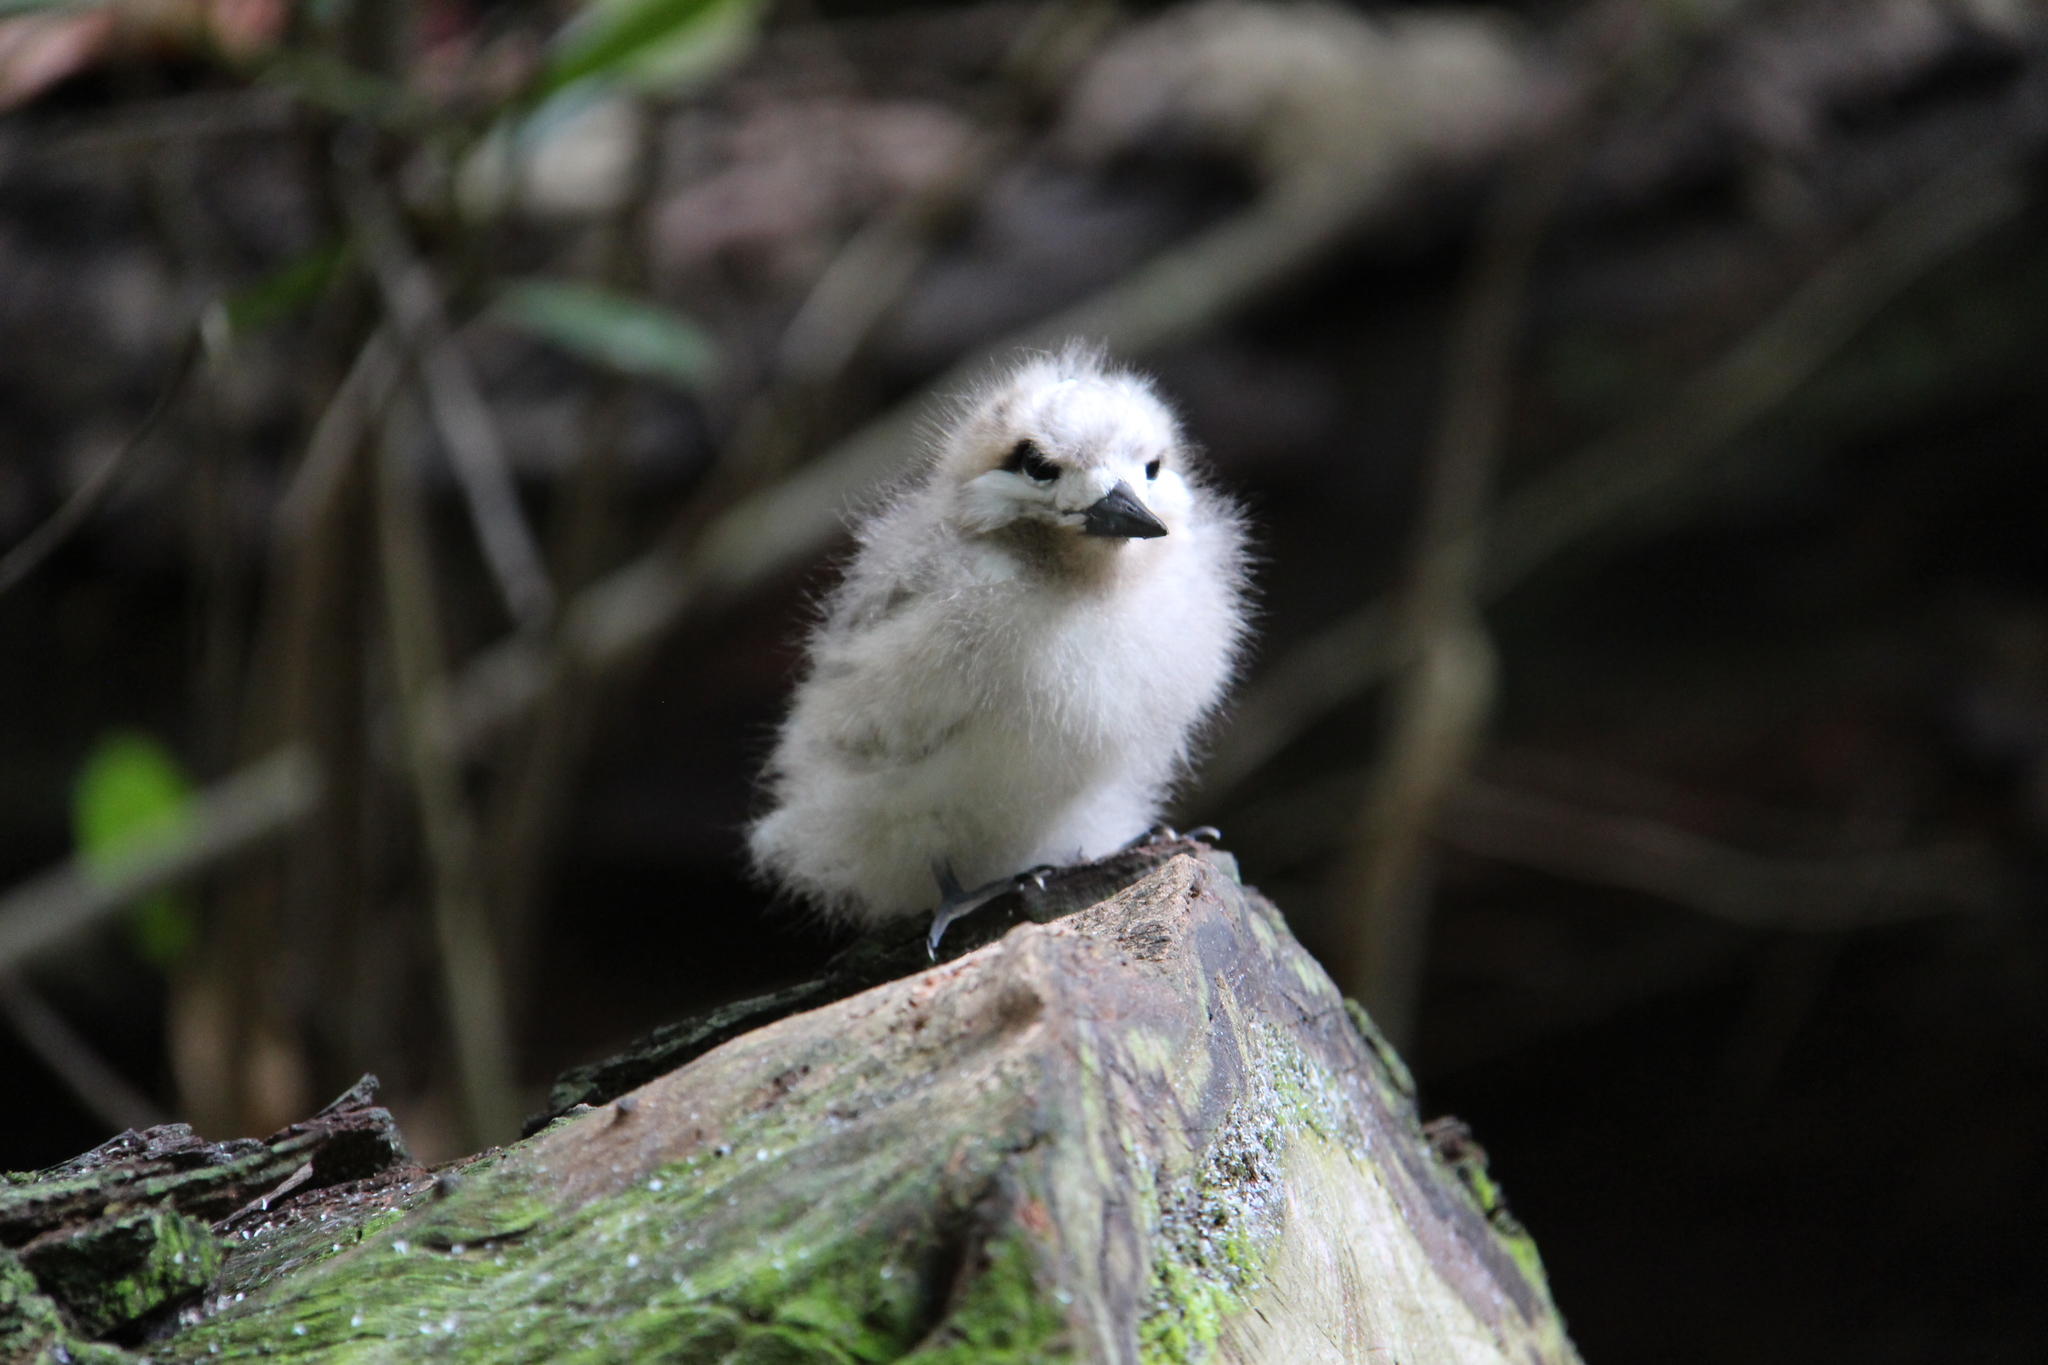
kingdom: Animalia
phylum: Chordata
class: Aves
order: Charadriiformes
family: Laridae
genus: Gygis
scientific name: Gygis alba
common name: White tern
